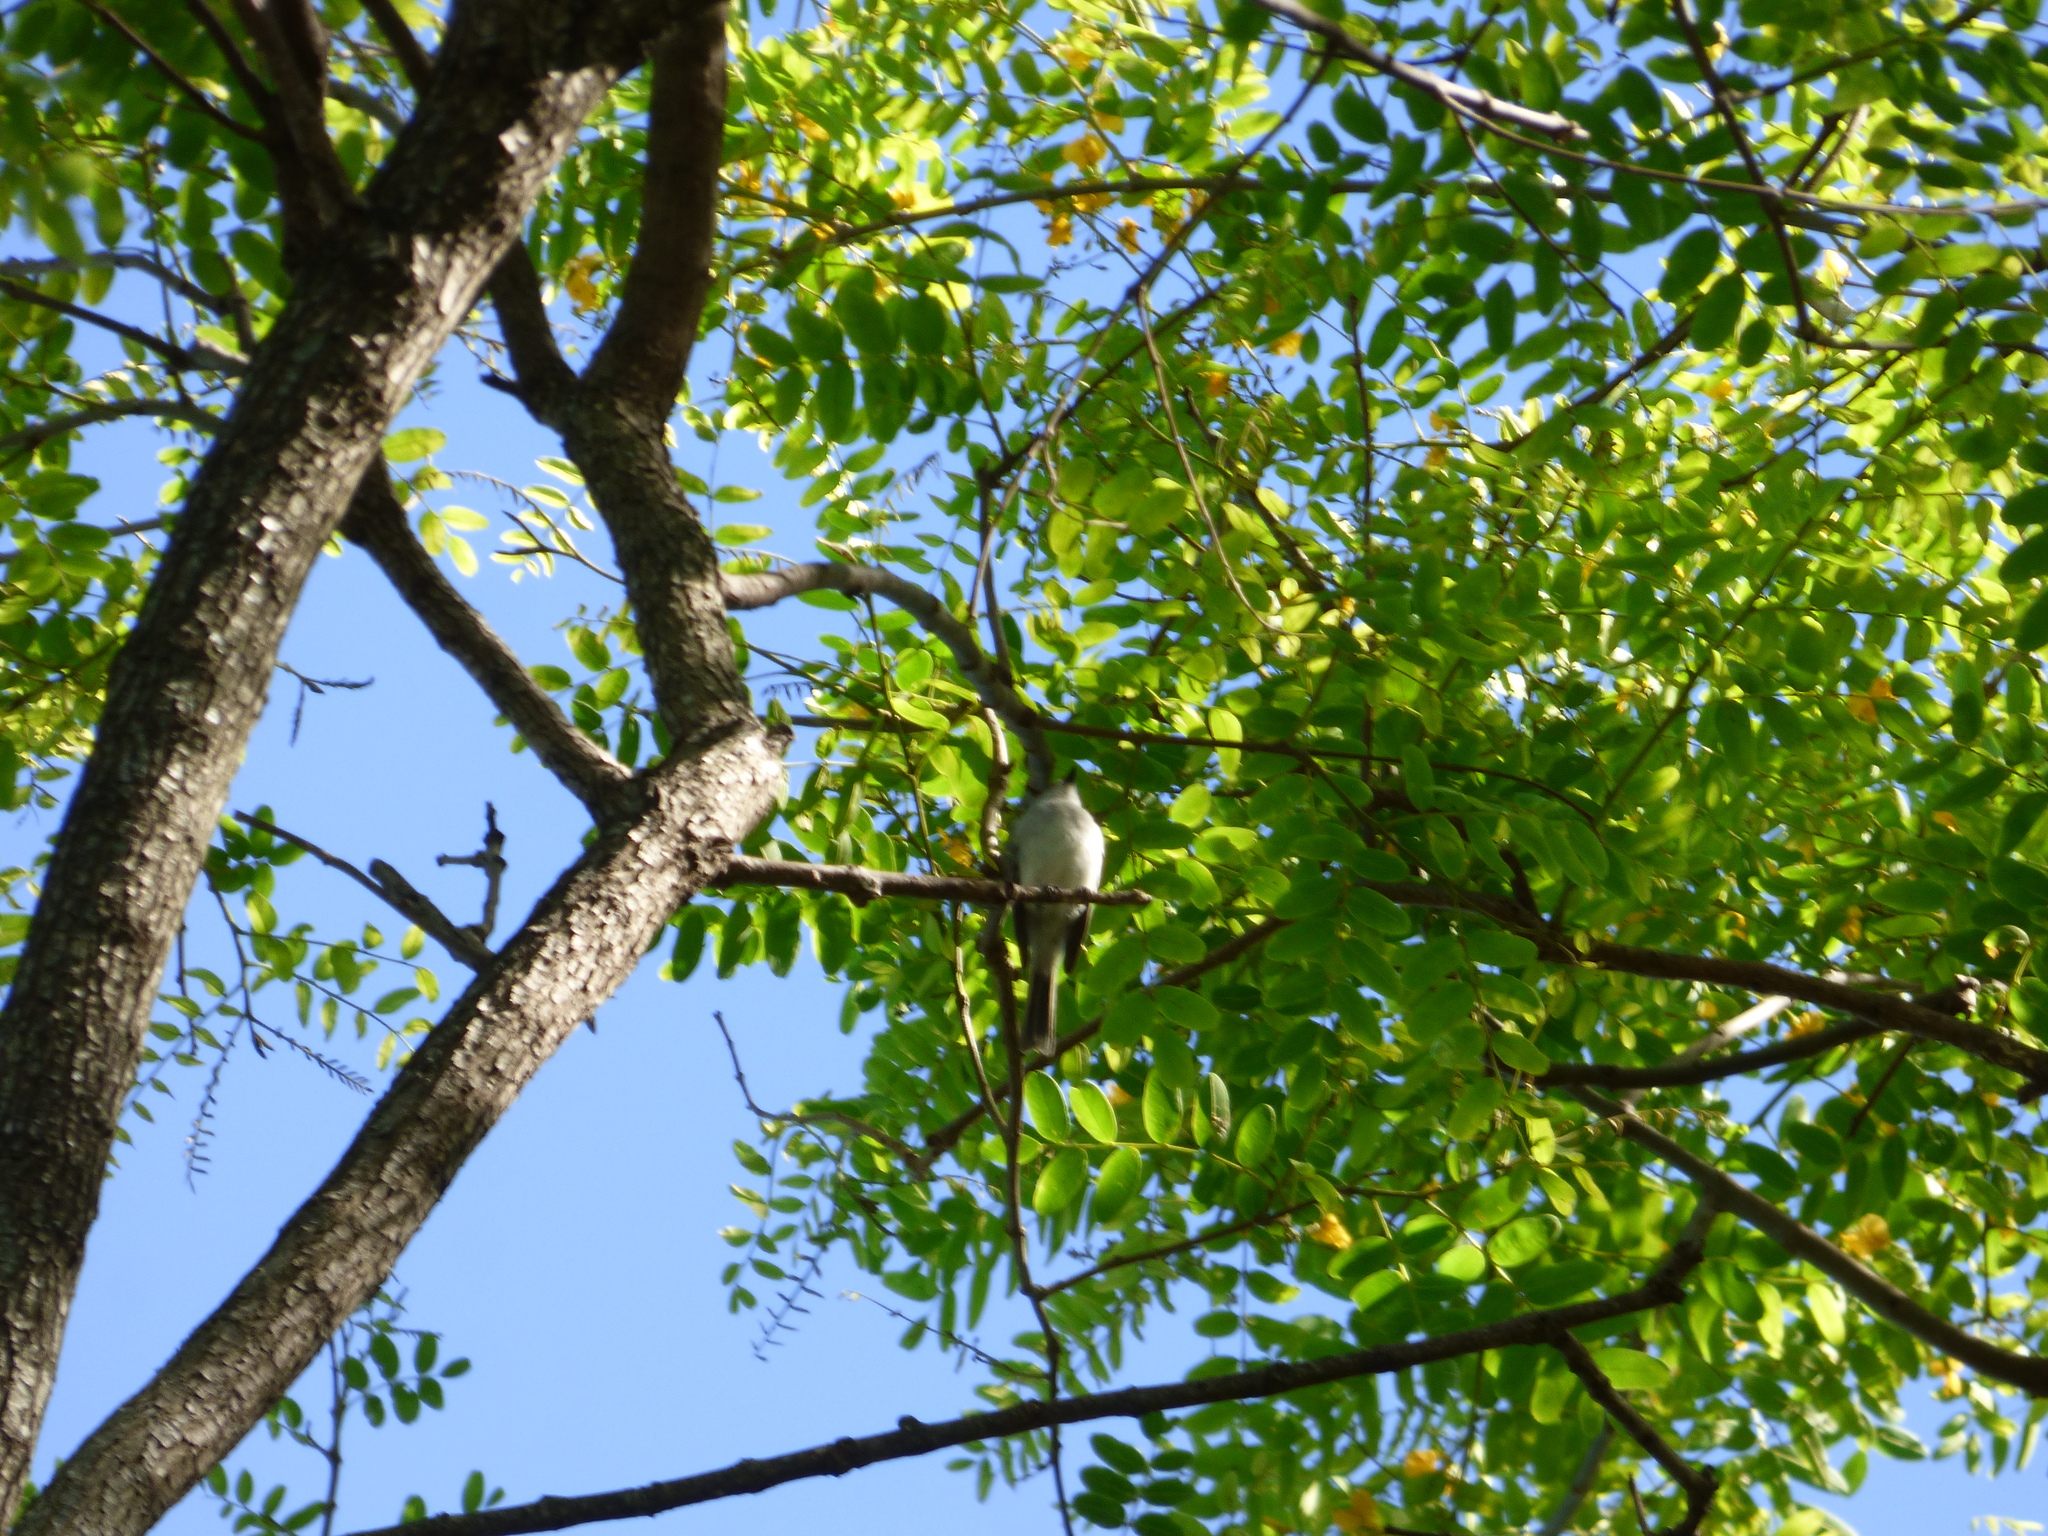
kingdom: Animalia
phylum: Chordata
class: Aves
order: Passeriformes
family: Tyrannidae
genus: Suiriri
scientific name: Suiriri suiriri
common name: Suiriri flycatcher
